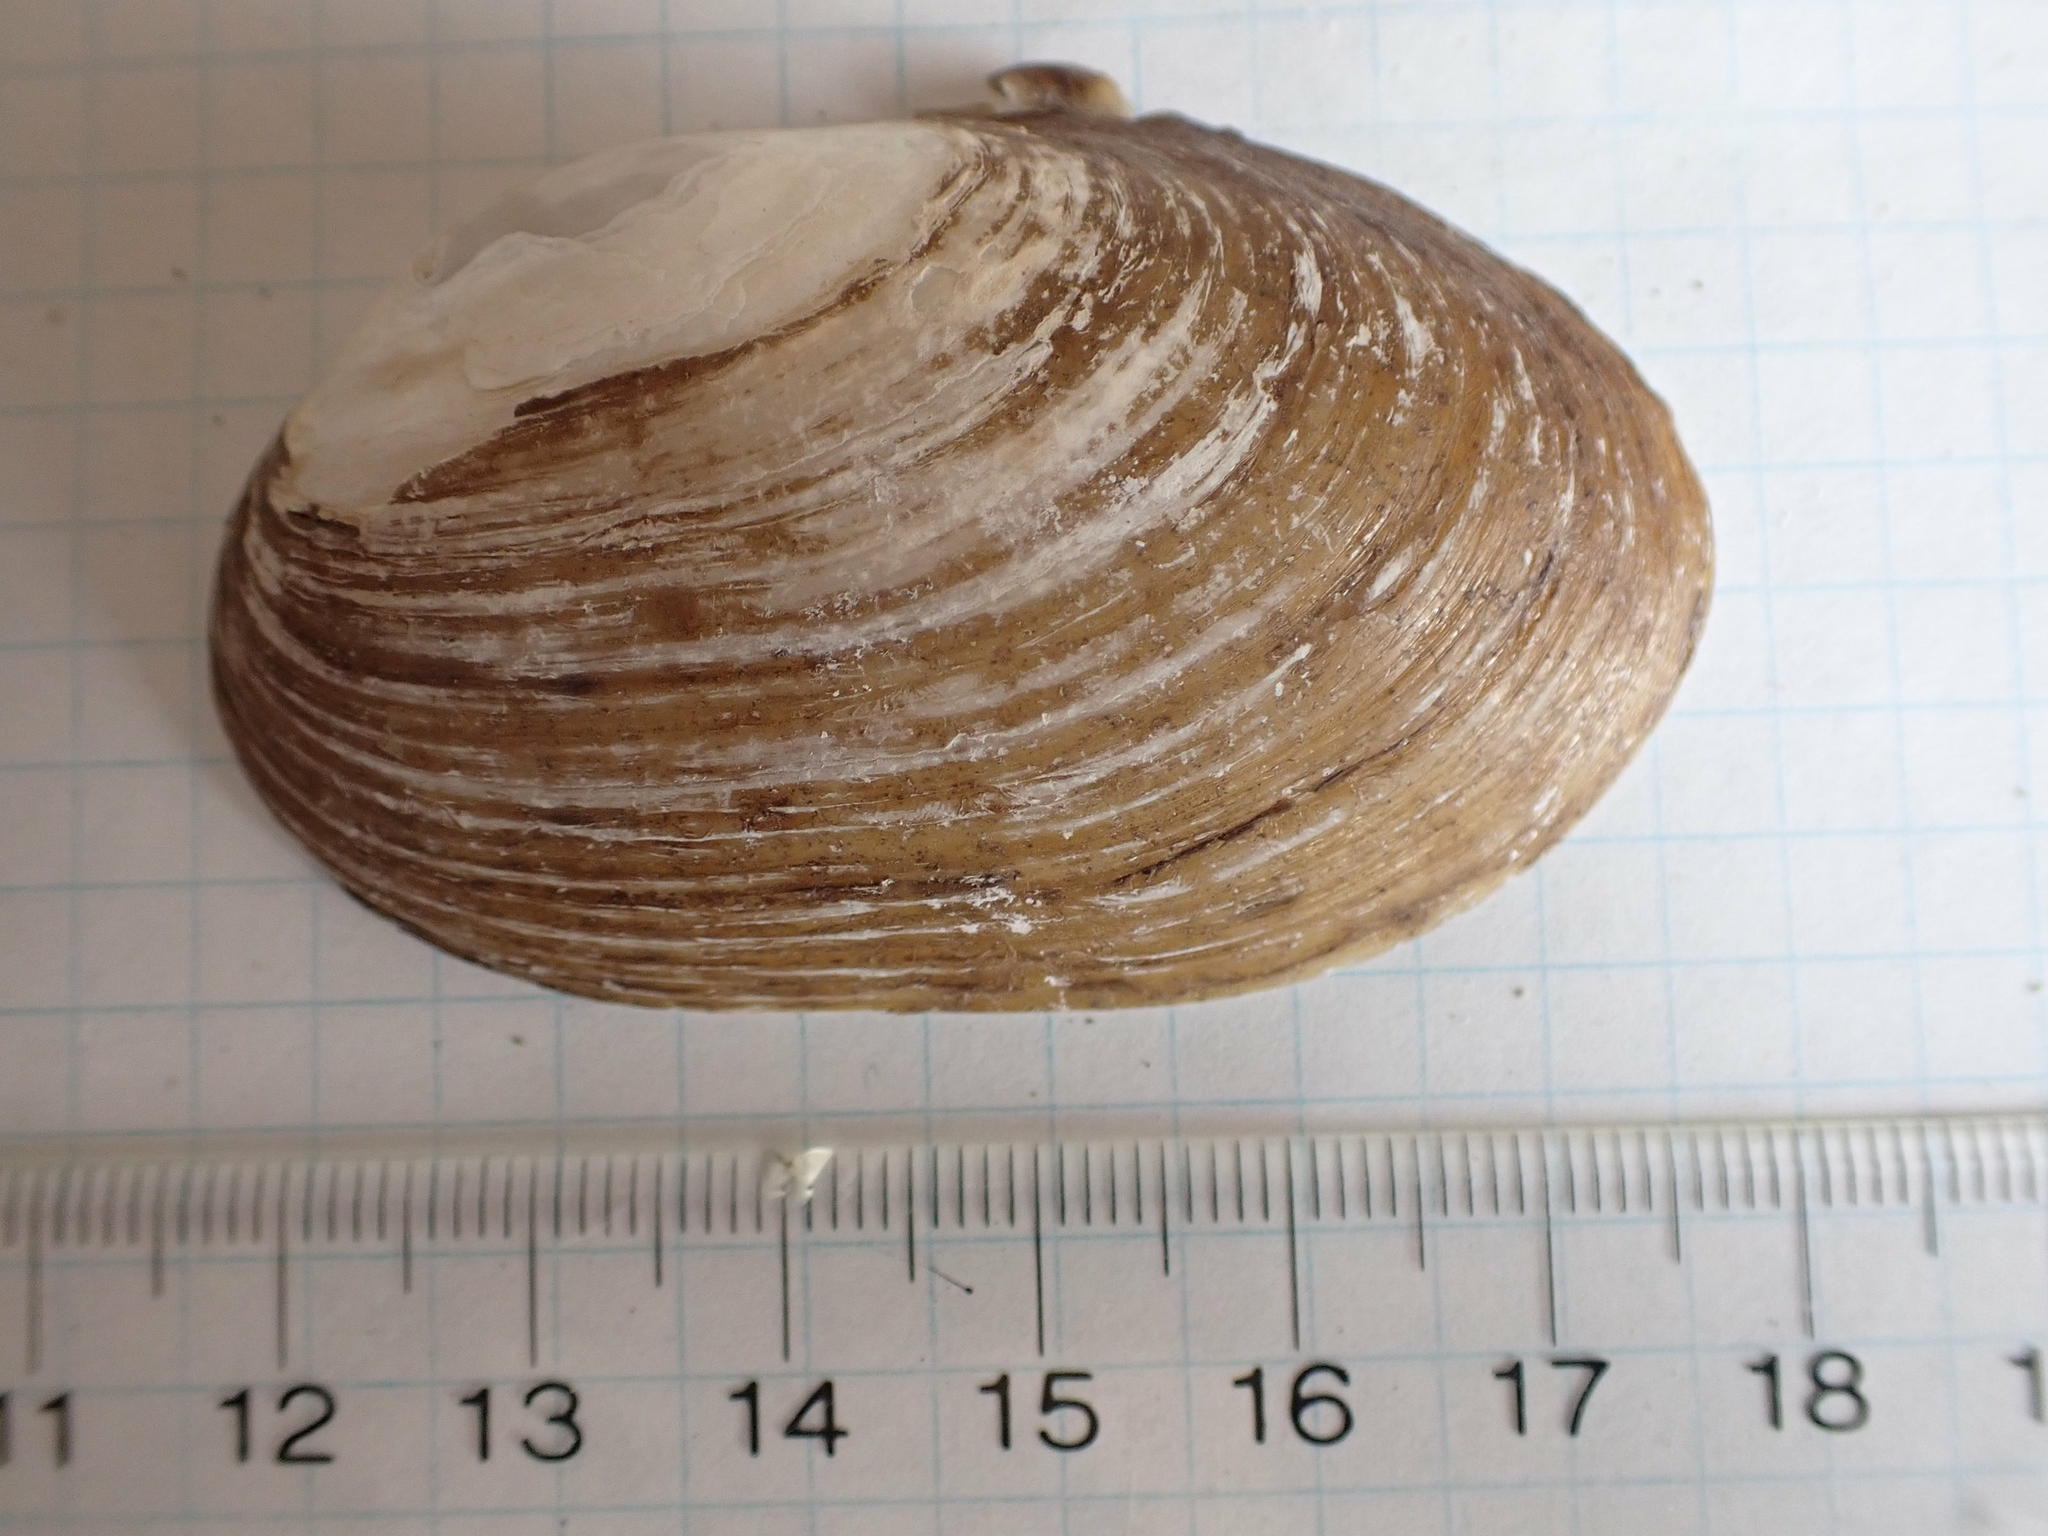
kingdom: Animalia
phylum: Mollusca
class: Bivalvia
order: Unionida
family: Unionidae
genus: Lampsilis
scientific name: Lampsilis siliquoidea
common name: Fatmucket
